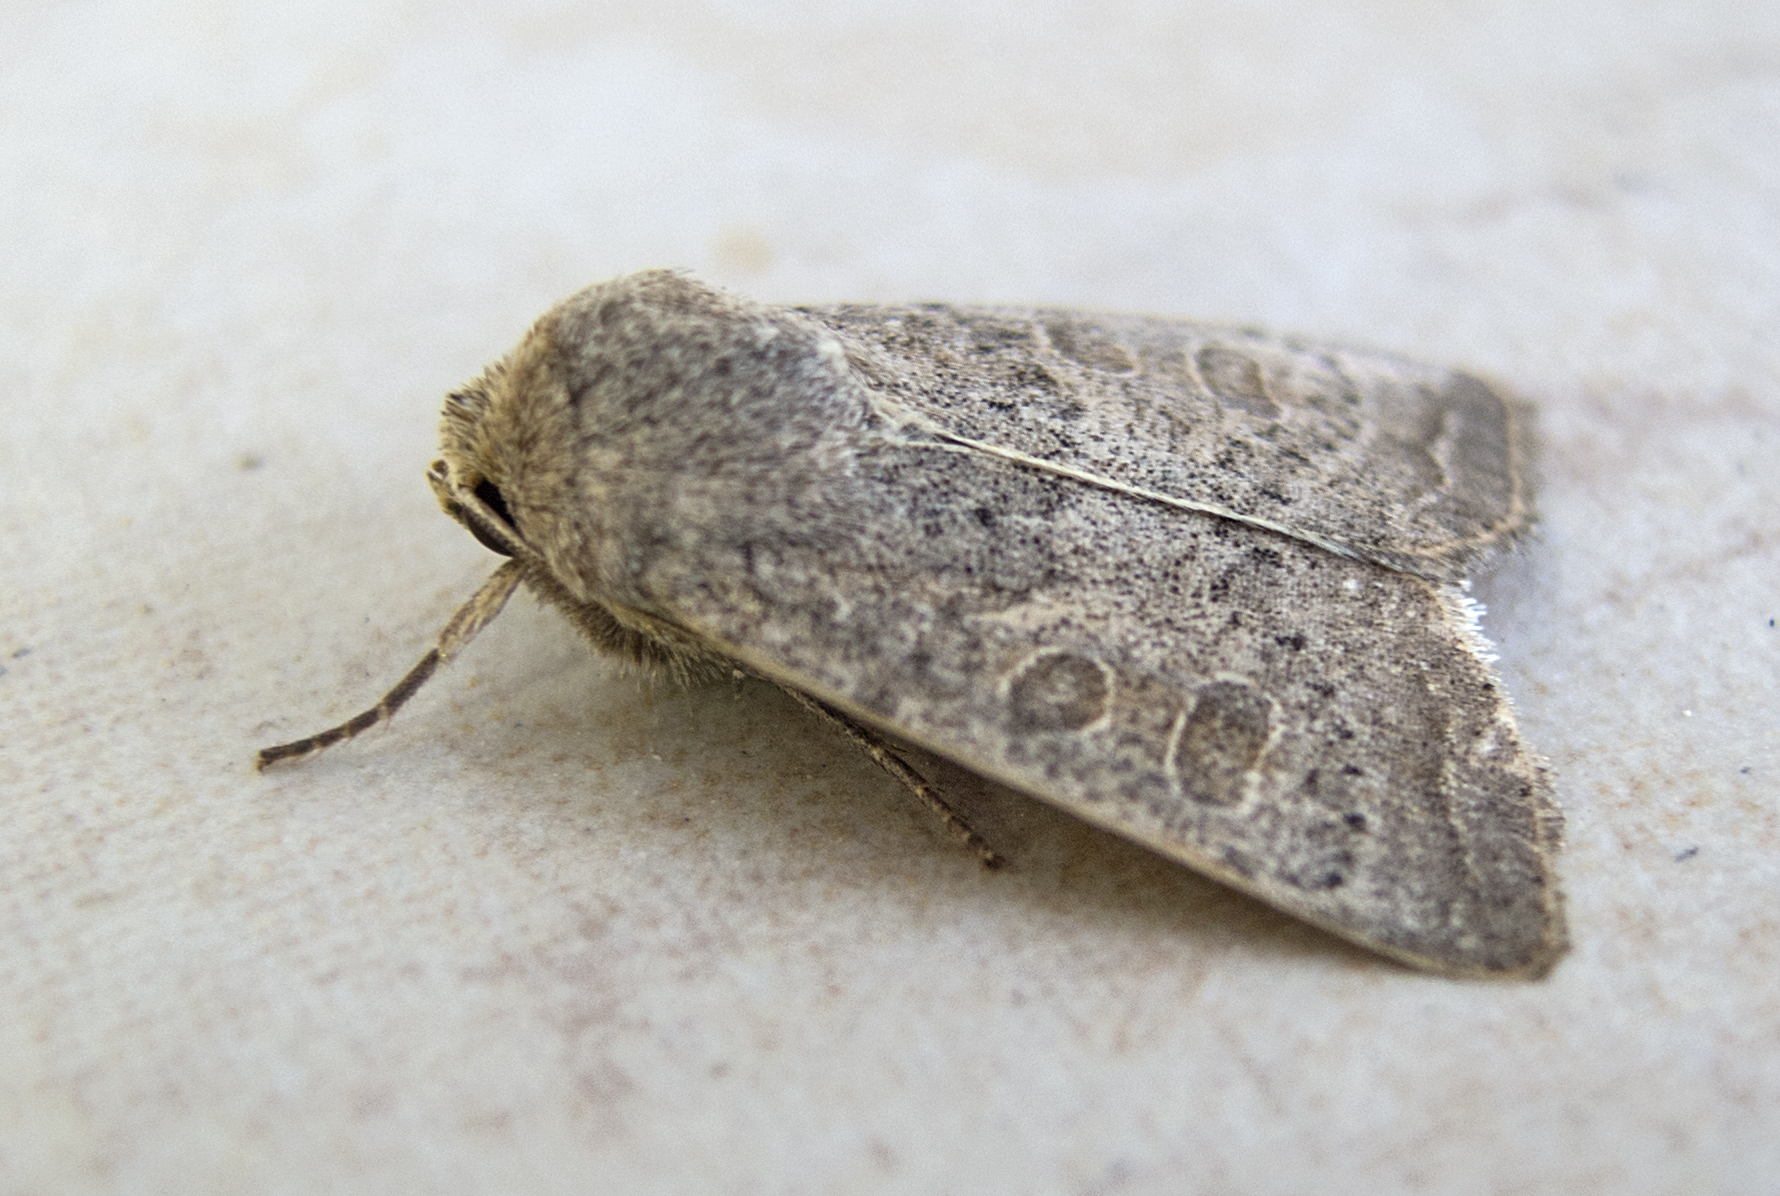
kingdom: Animalia
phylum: Arthropoda
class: Insecta
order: Lepidoptera
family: Noctuidae
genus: Hoplodrina
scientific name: Hoplodrina ambigua
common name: Vine's rustic
